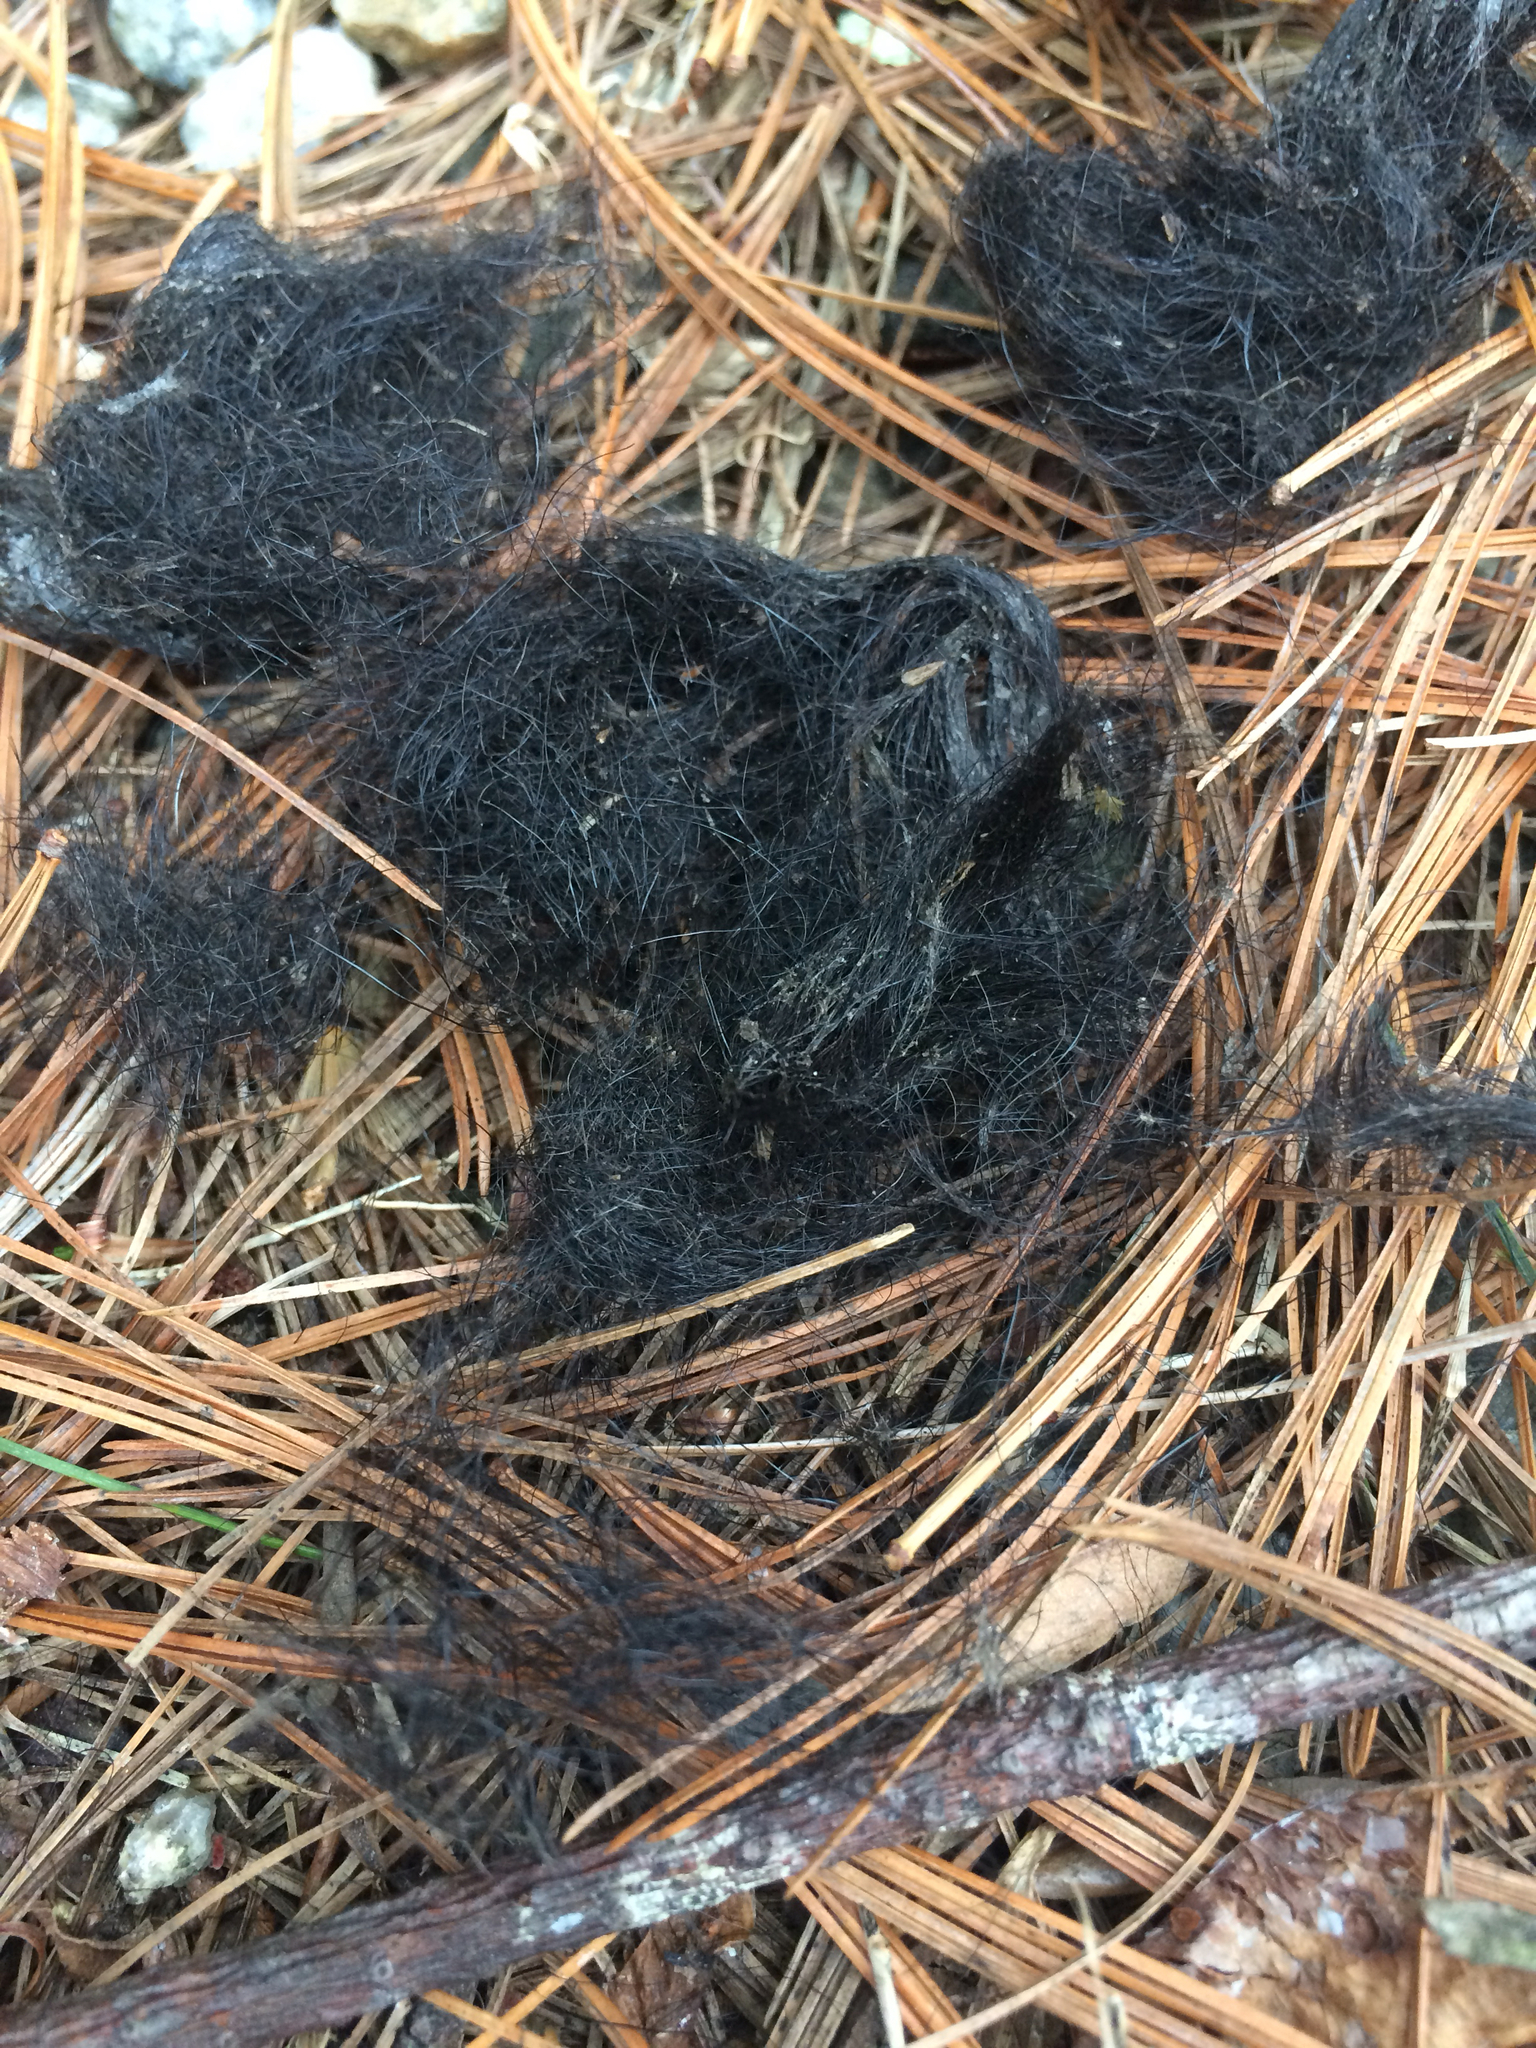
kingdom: Animalia
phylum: Chordata
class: Mammalia
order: Carnivora
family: Canidae
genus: Canis
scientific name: Canis latrans
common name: Coyote
